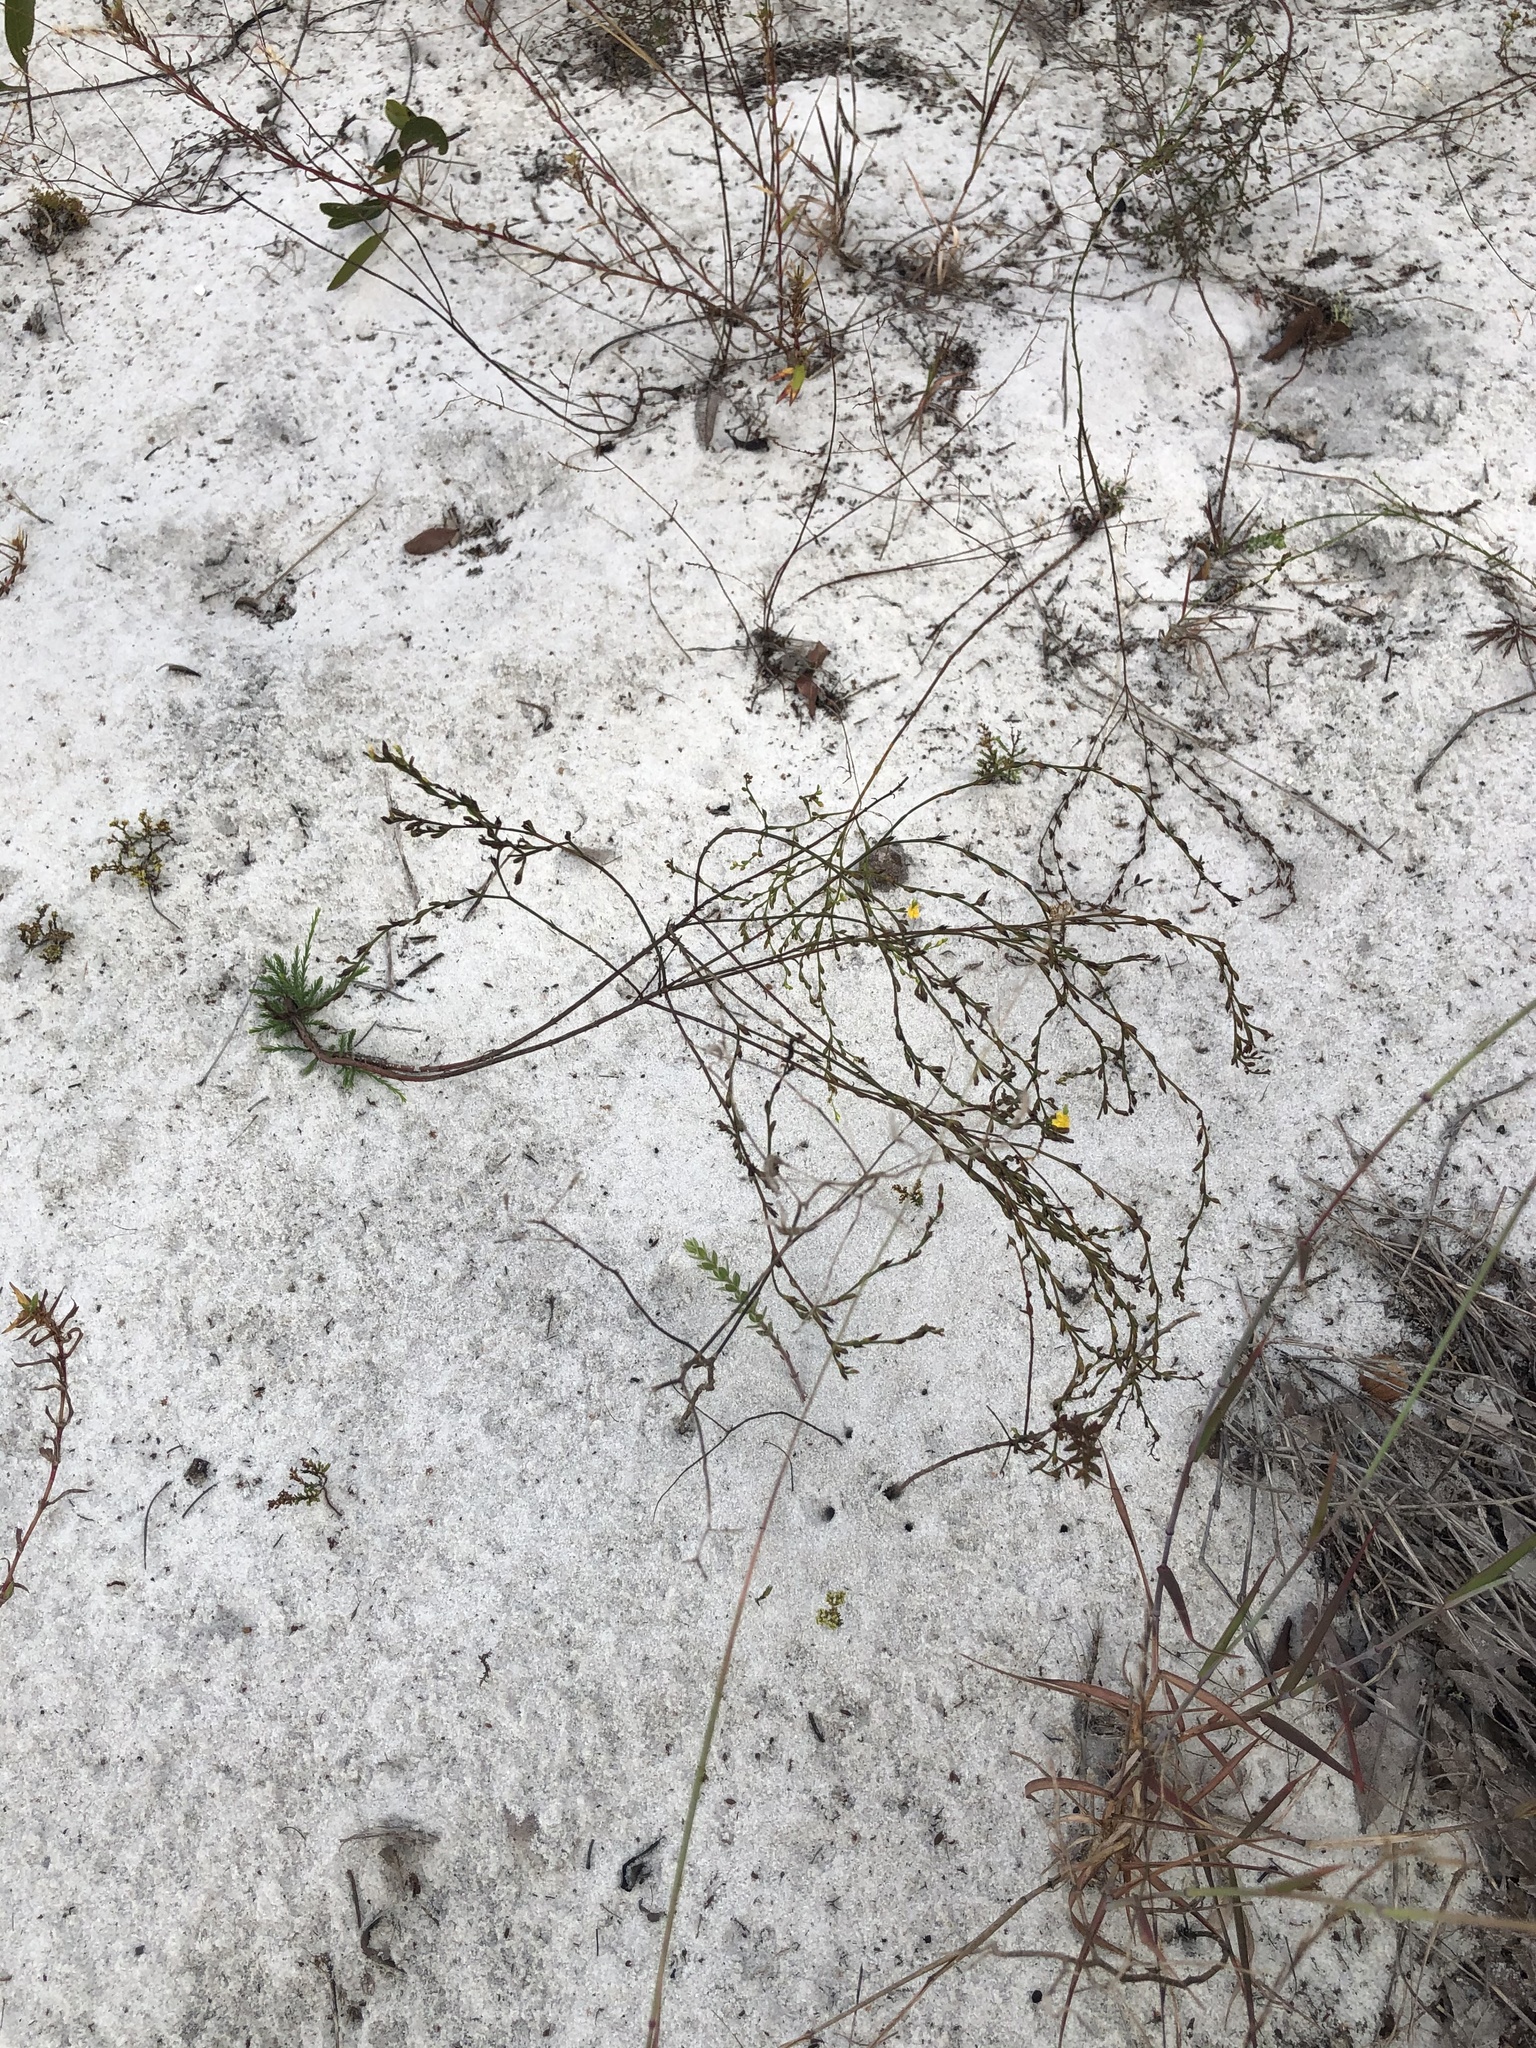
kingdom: Plantae
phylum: Tracheophyta
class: Magnoliopsida
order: Malpighiales
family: Hypericaceae
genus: Hypericum
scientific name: Hypericum cumulicola
